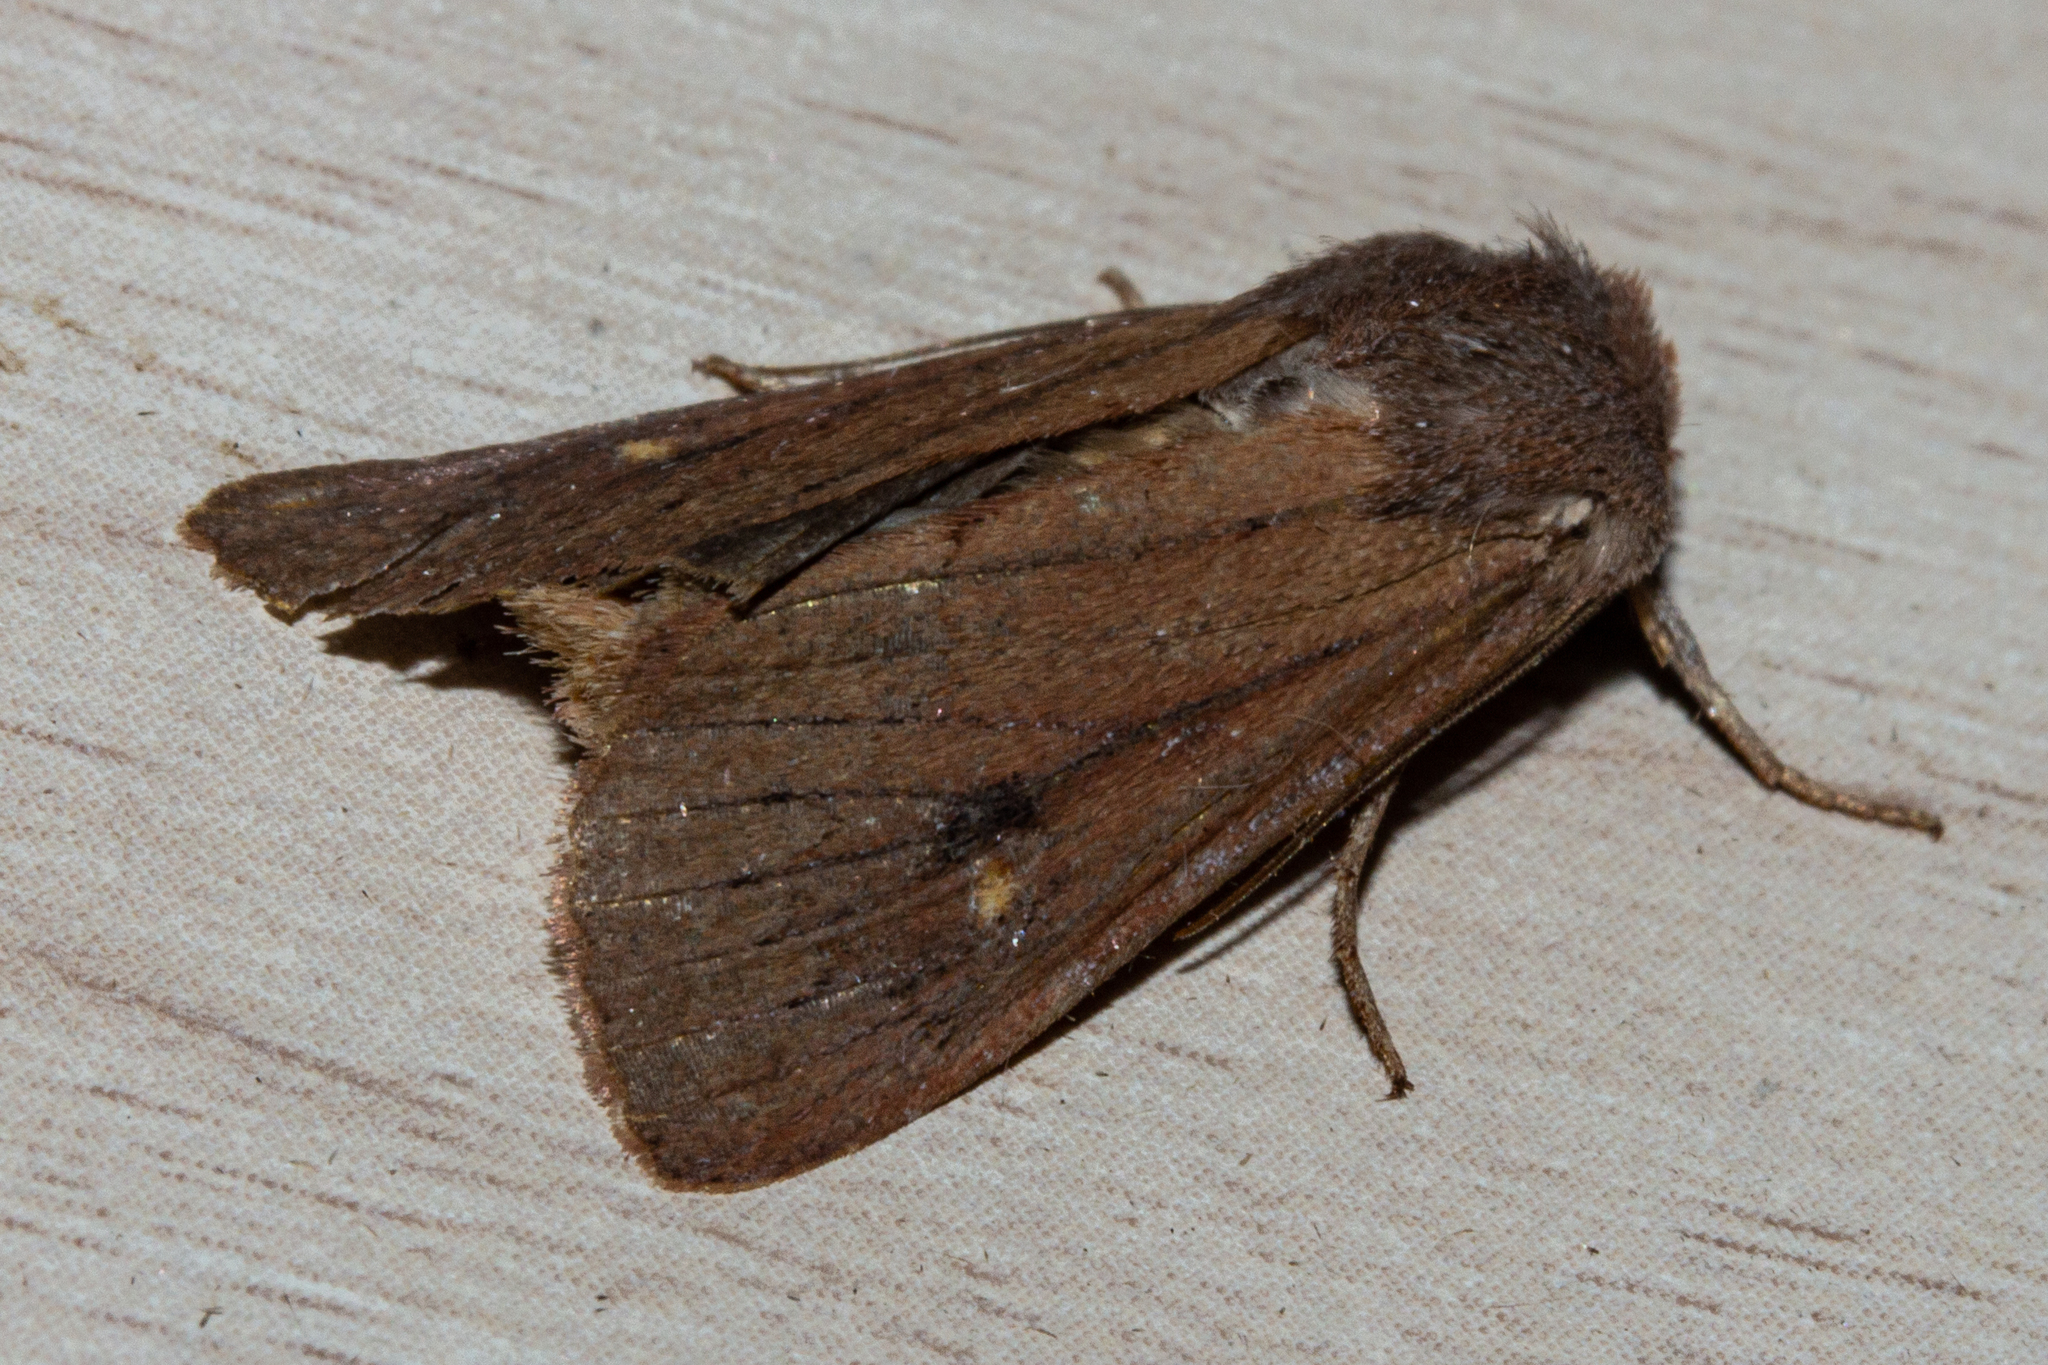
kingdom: Animalia
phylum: Arthropoda
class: Insecta
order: Lepidoptera
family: Noctuidae
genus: Ichneutica
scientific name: Ichneutica
